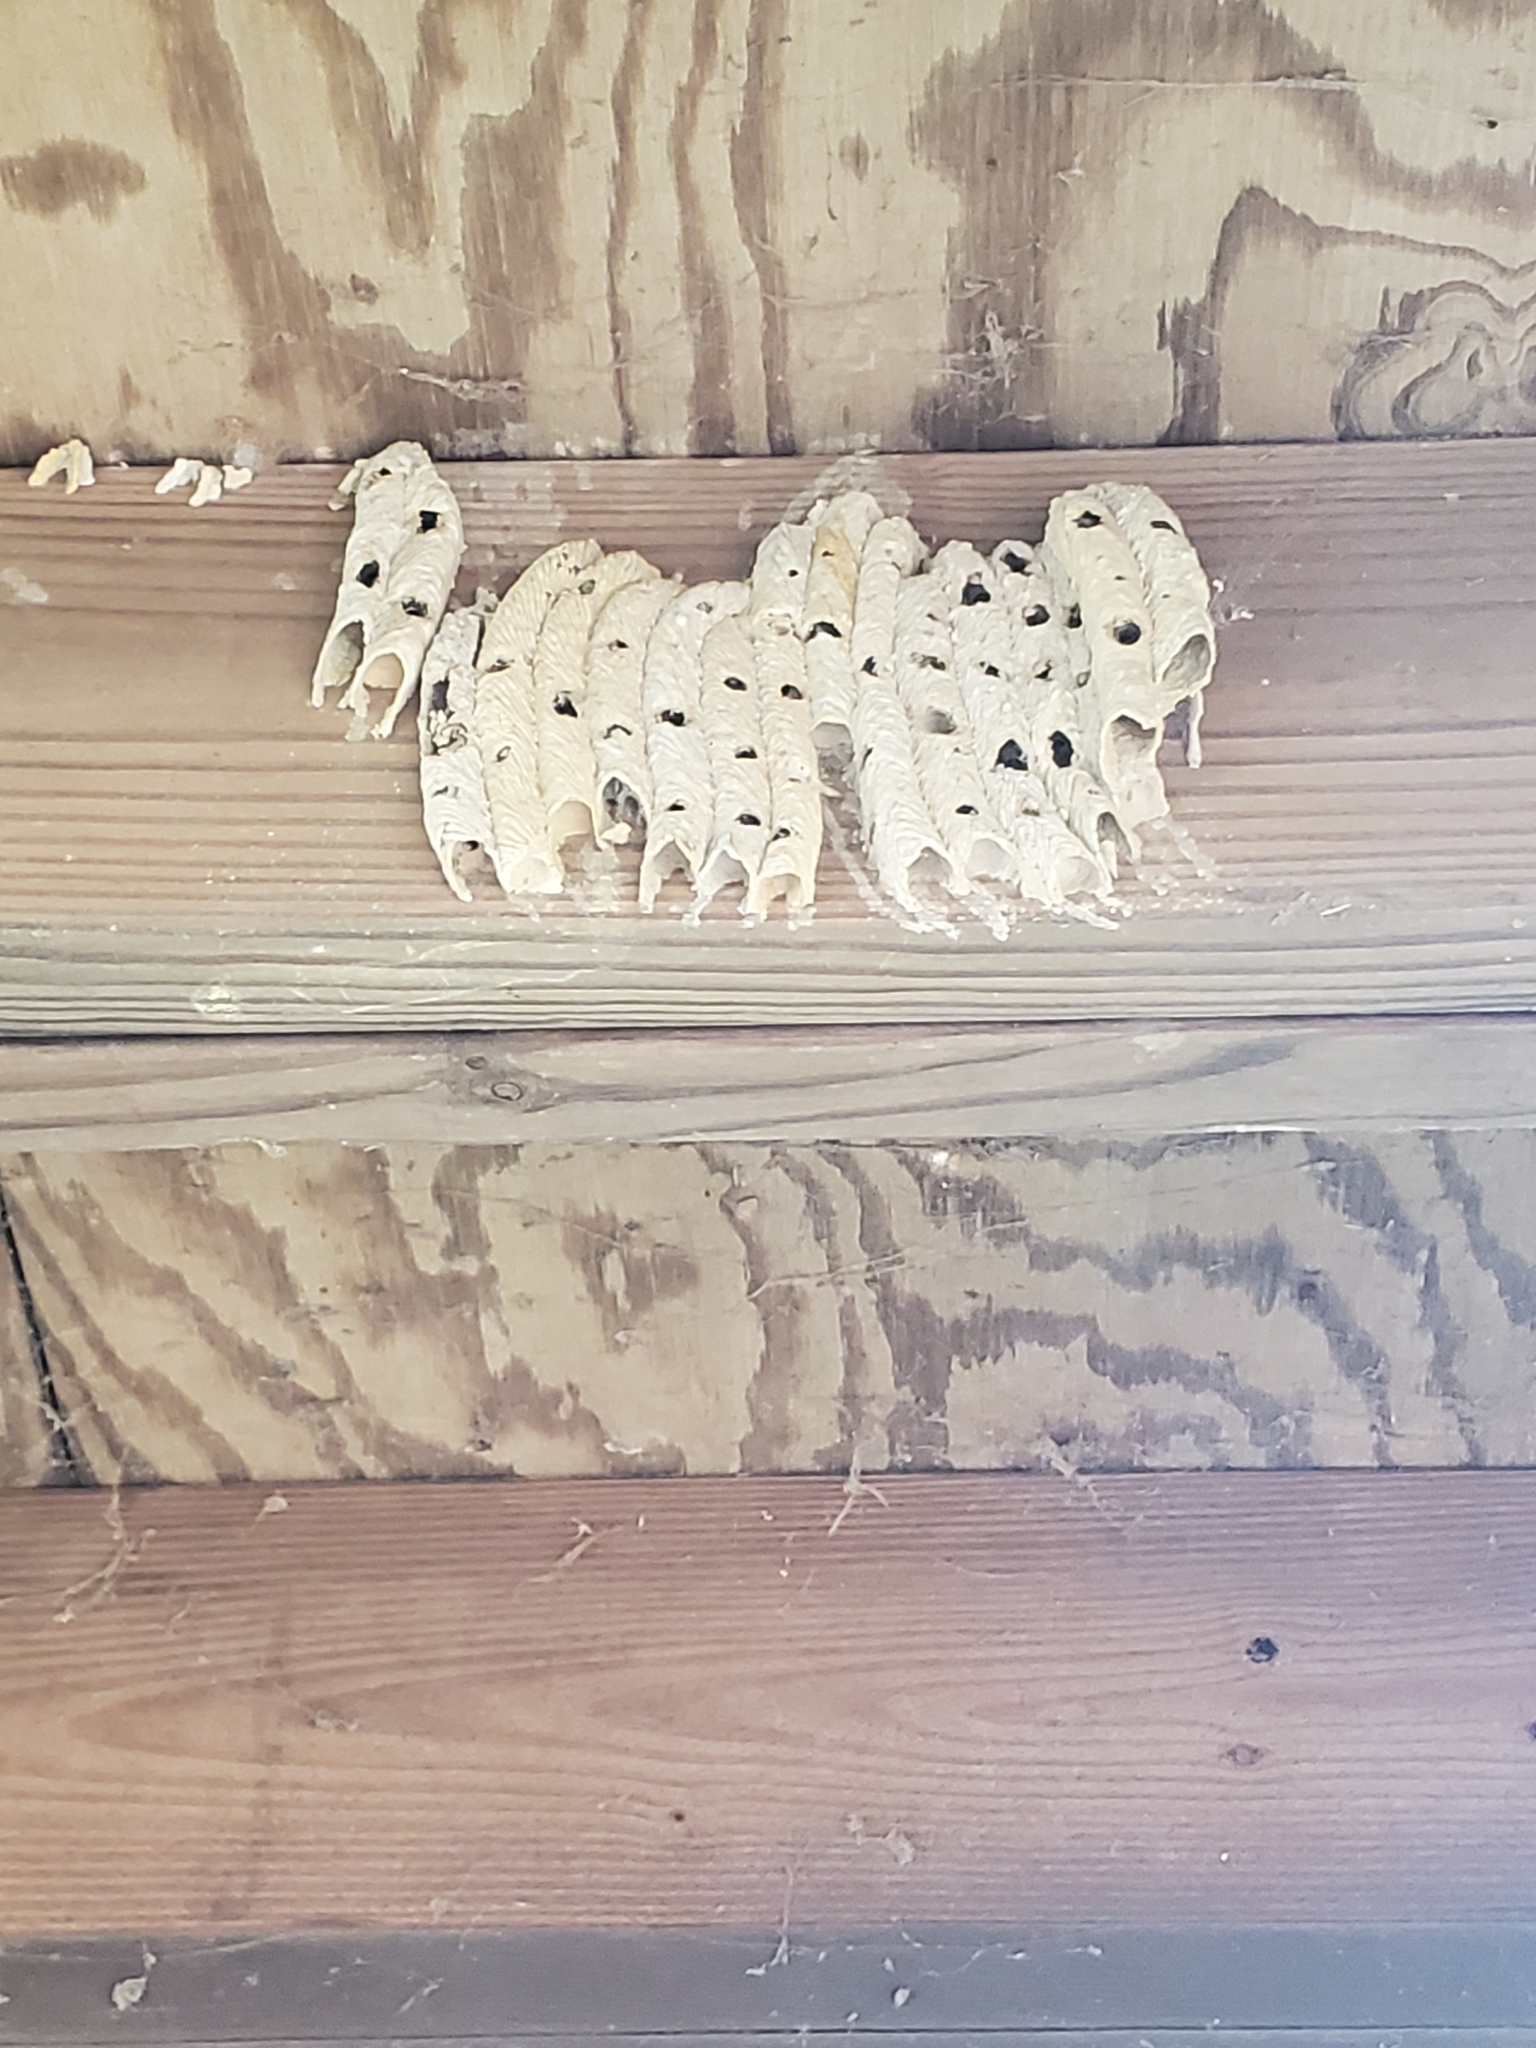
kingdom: Animalia
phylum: Arthropoda
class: Insecta
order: Hymenoptera
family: Crabronidae
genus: Trypoxylon
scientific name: Trypoxylon politum
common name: Organ-pipe mud-dauber wasp
